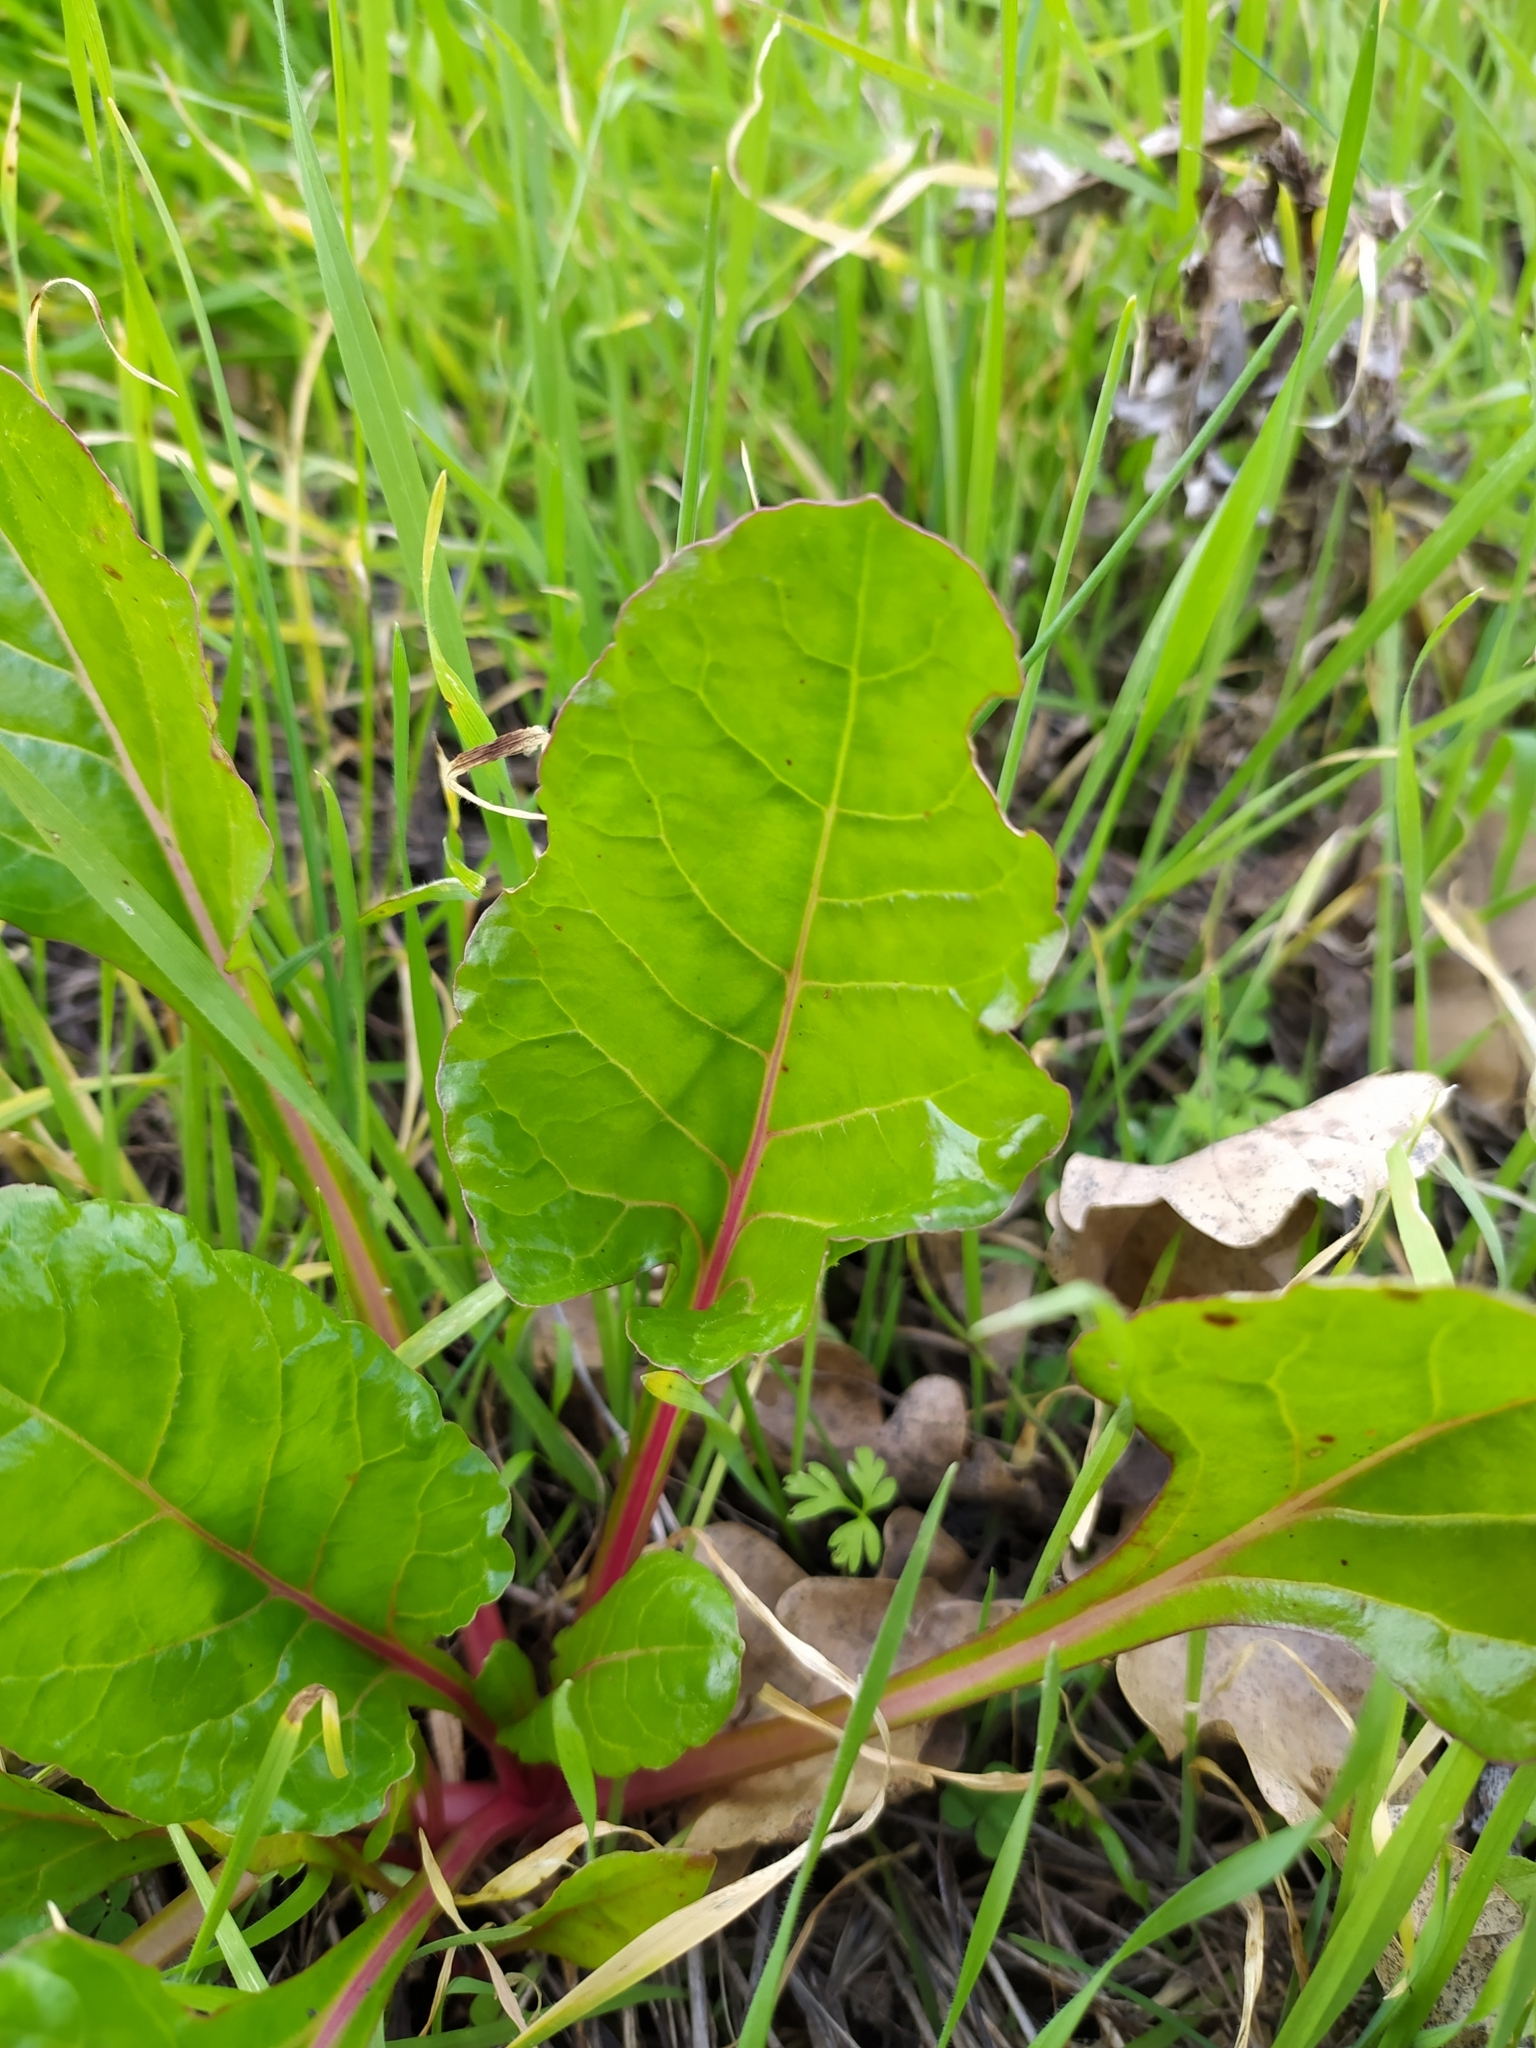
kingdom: Plantae
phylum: Tracheophyta
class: Magnoliopsida
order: Caryophyllales
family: Amaranthaceae
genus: Beta
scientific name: Beta vulgaris
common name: Beet
